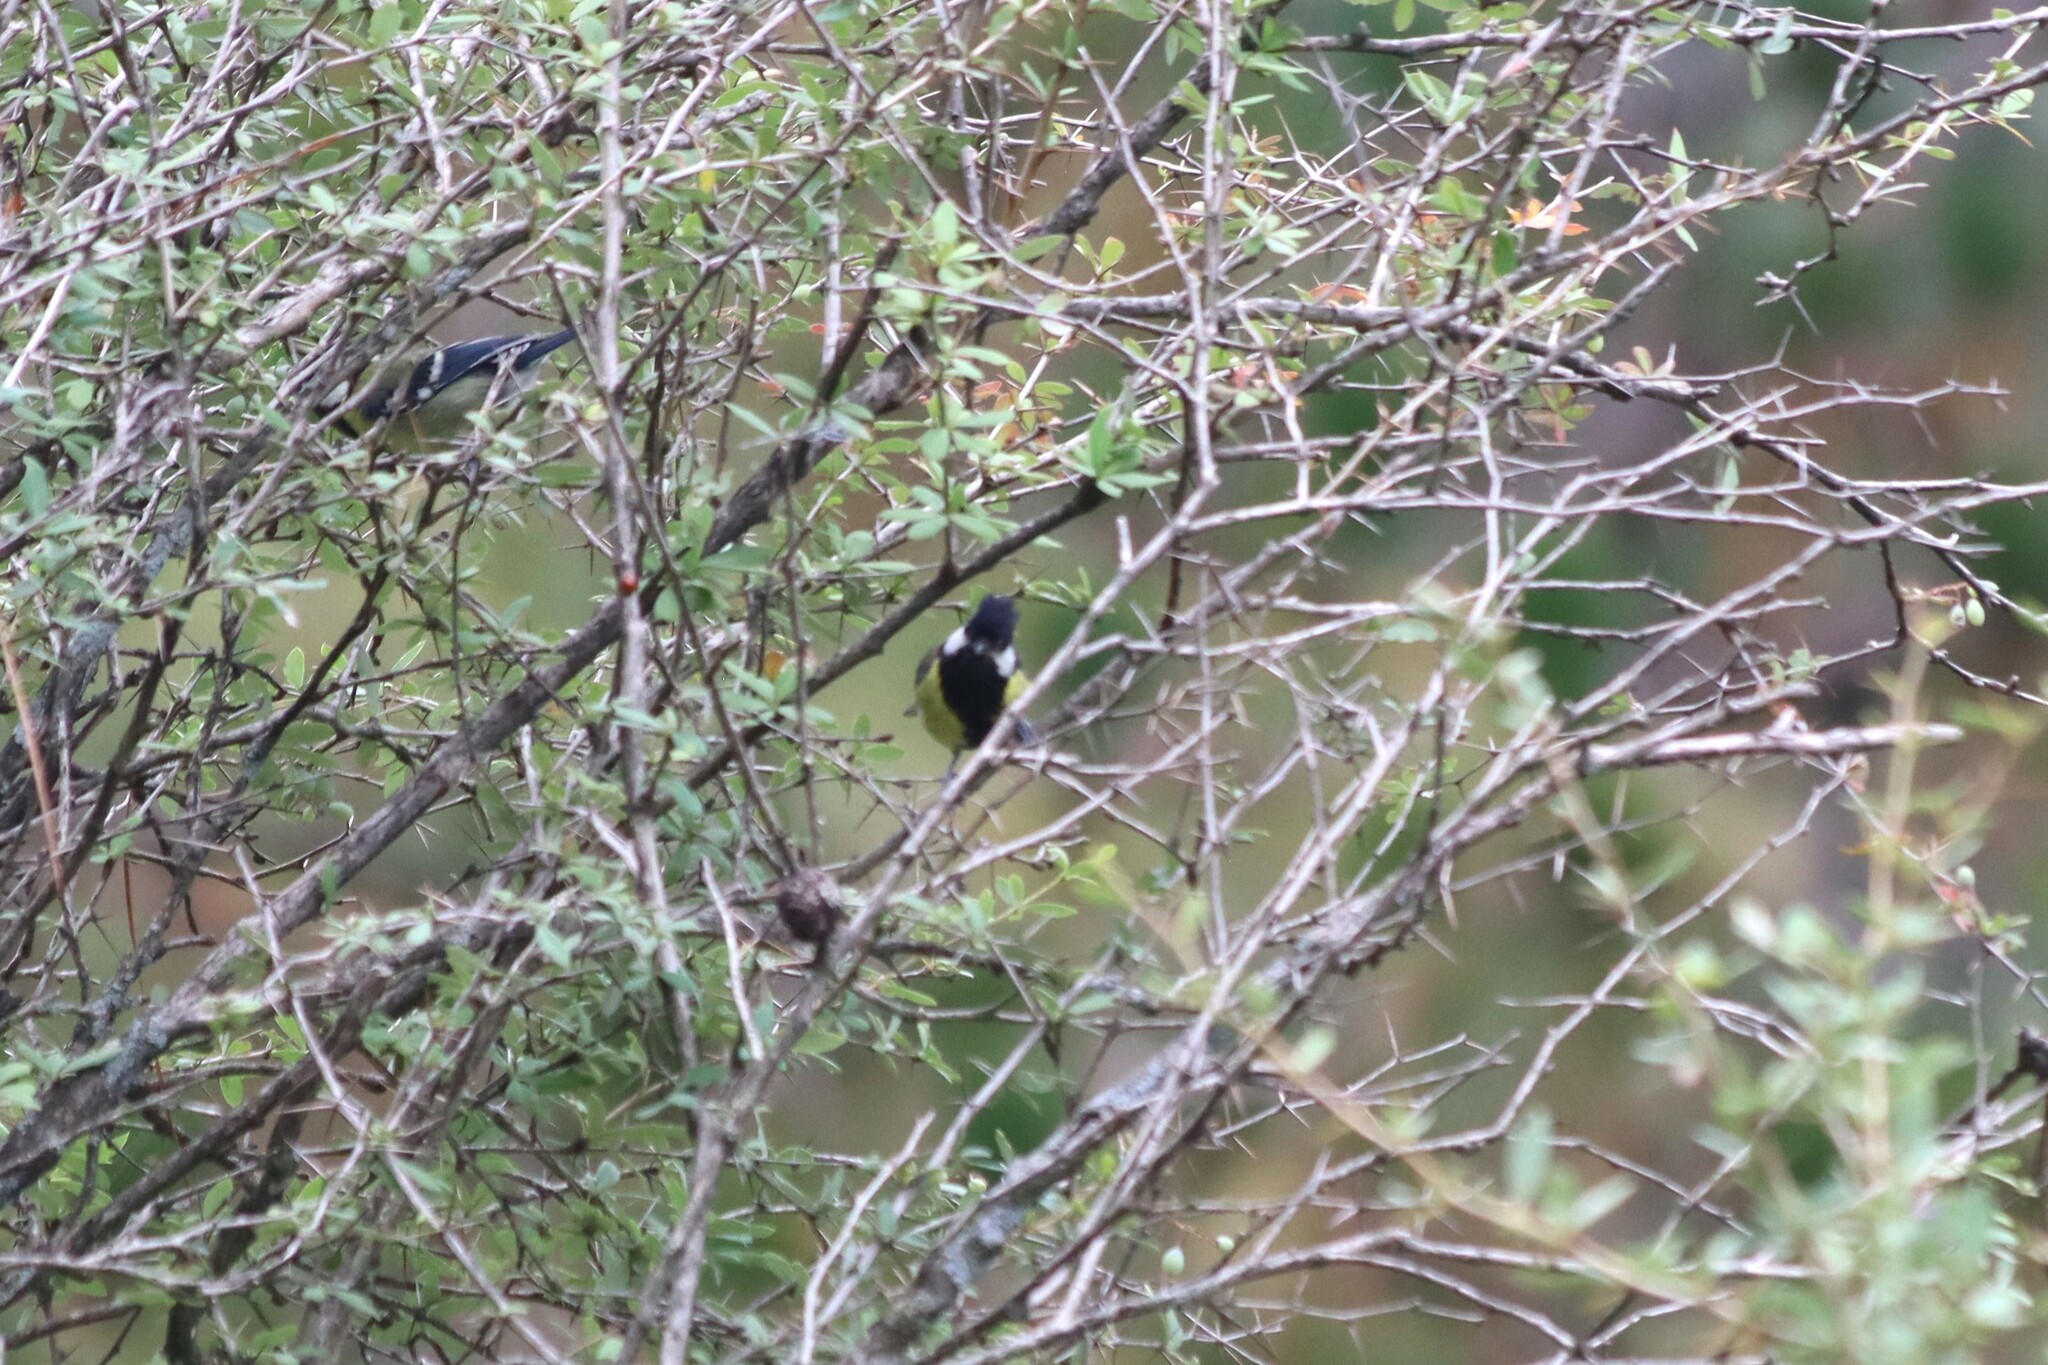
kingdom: Animalia
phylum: Chordata
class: Aves
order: Passeriformes
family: Paridae
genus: Parus
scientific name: Parus monticolus
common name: Green-backed tit
